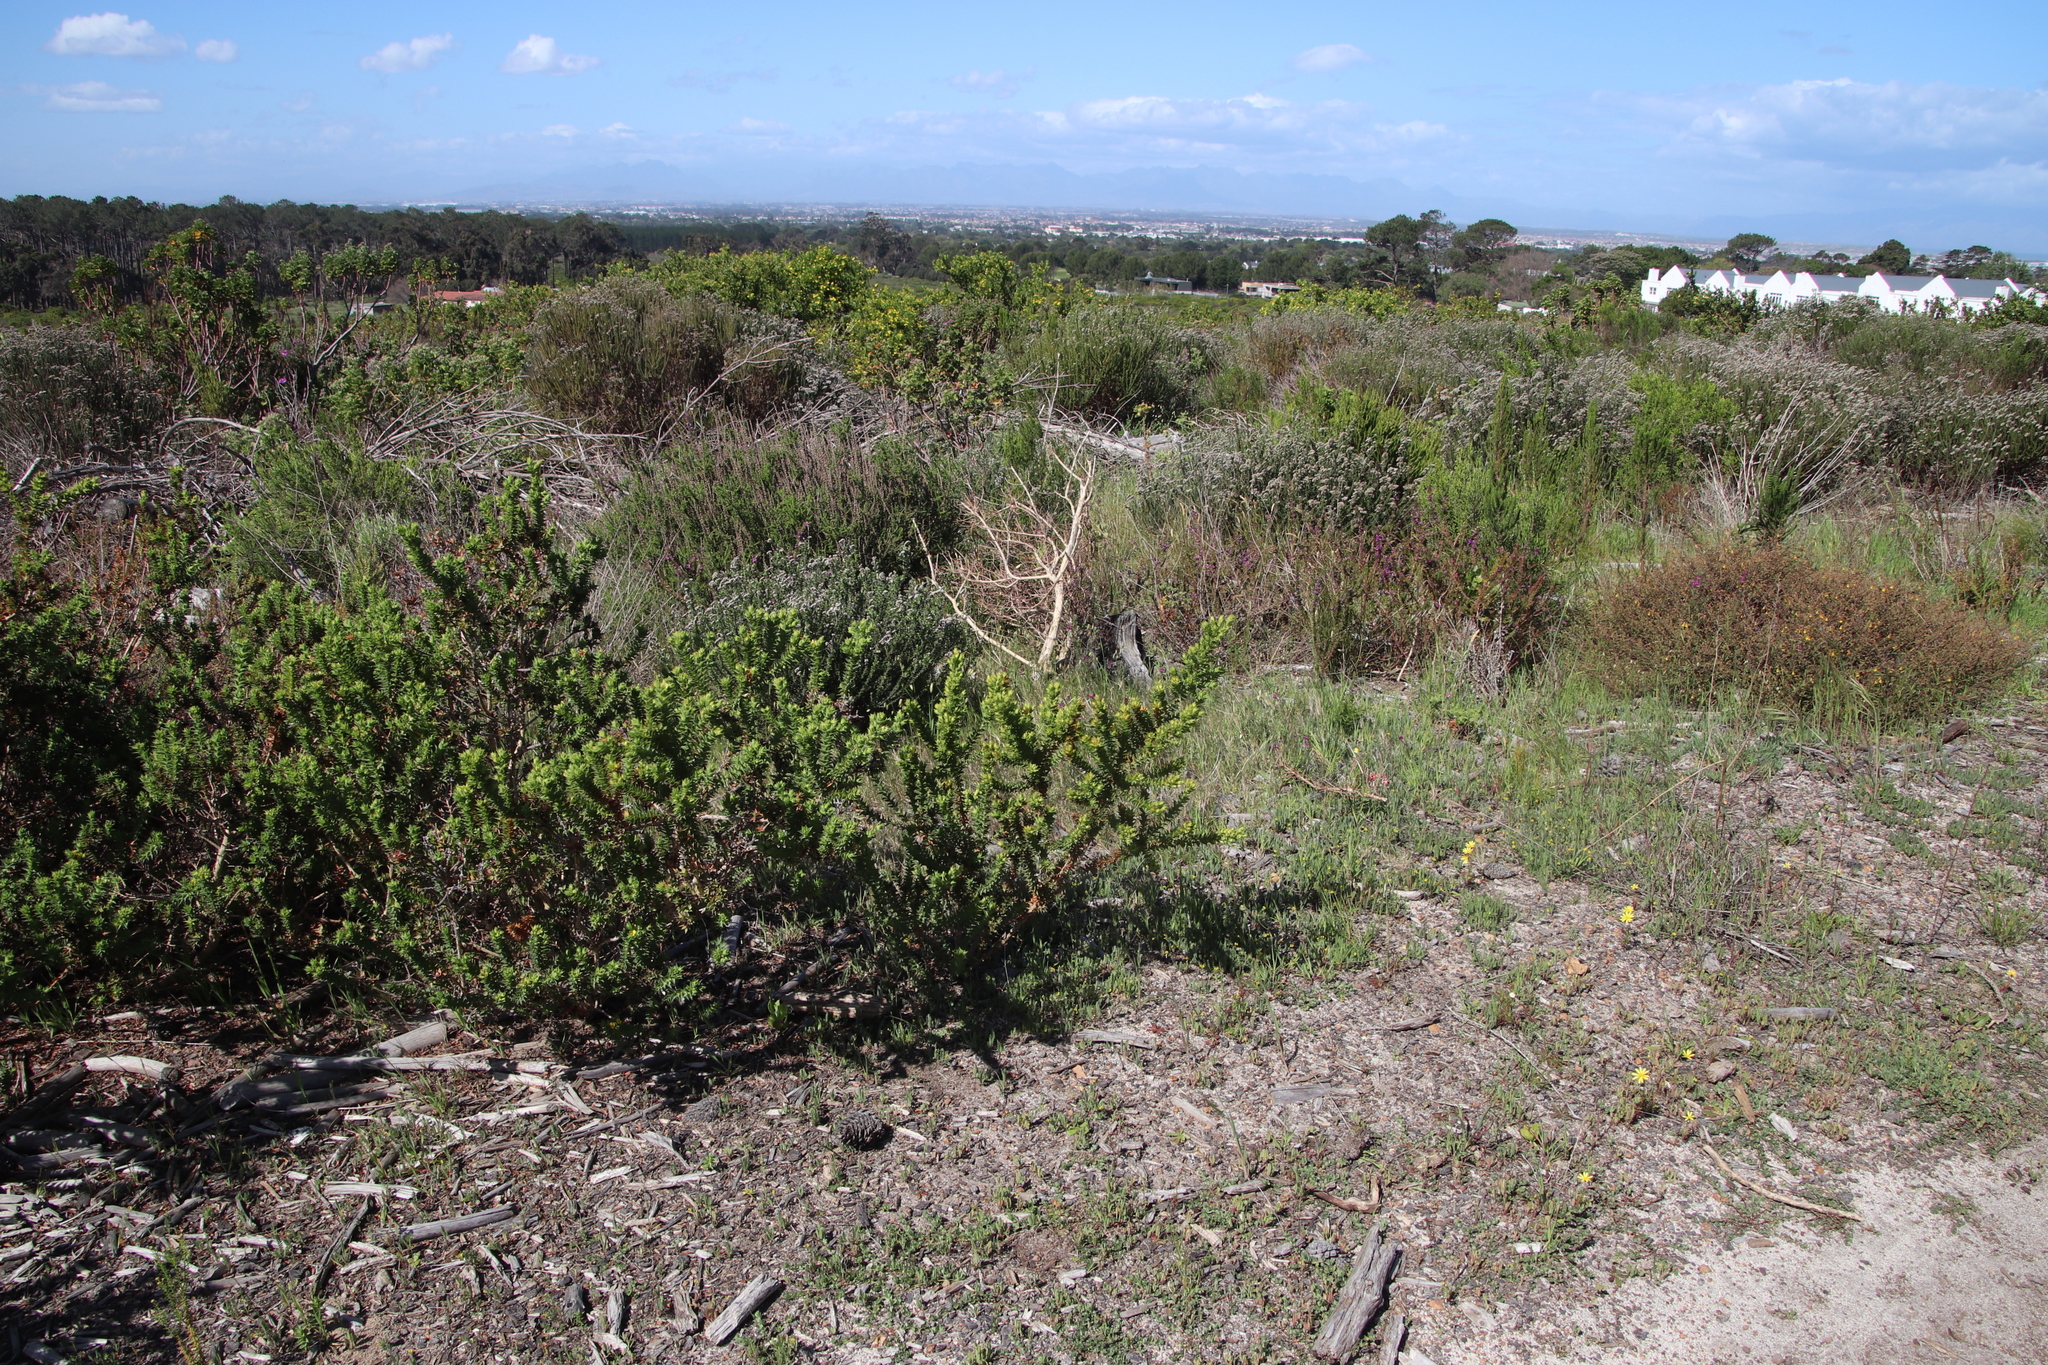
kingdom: Plantae
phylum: Tracheophyta
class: Magnoliopsida
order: Fabales
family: Fabaceae
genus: Aspalathus
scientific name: Aspalathus cordata
